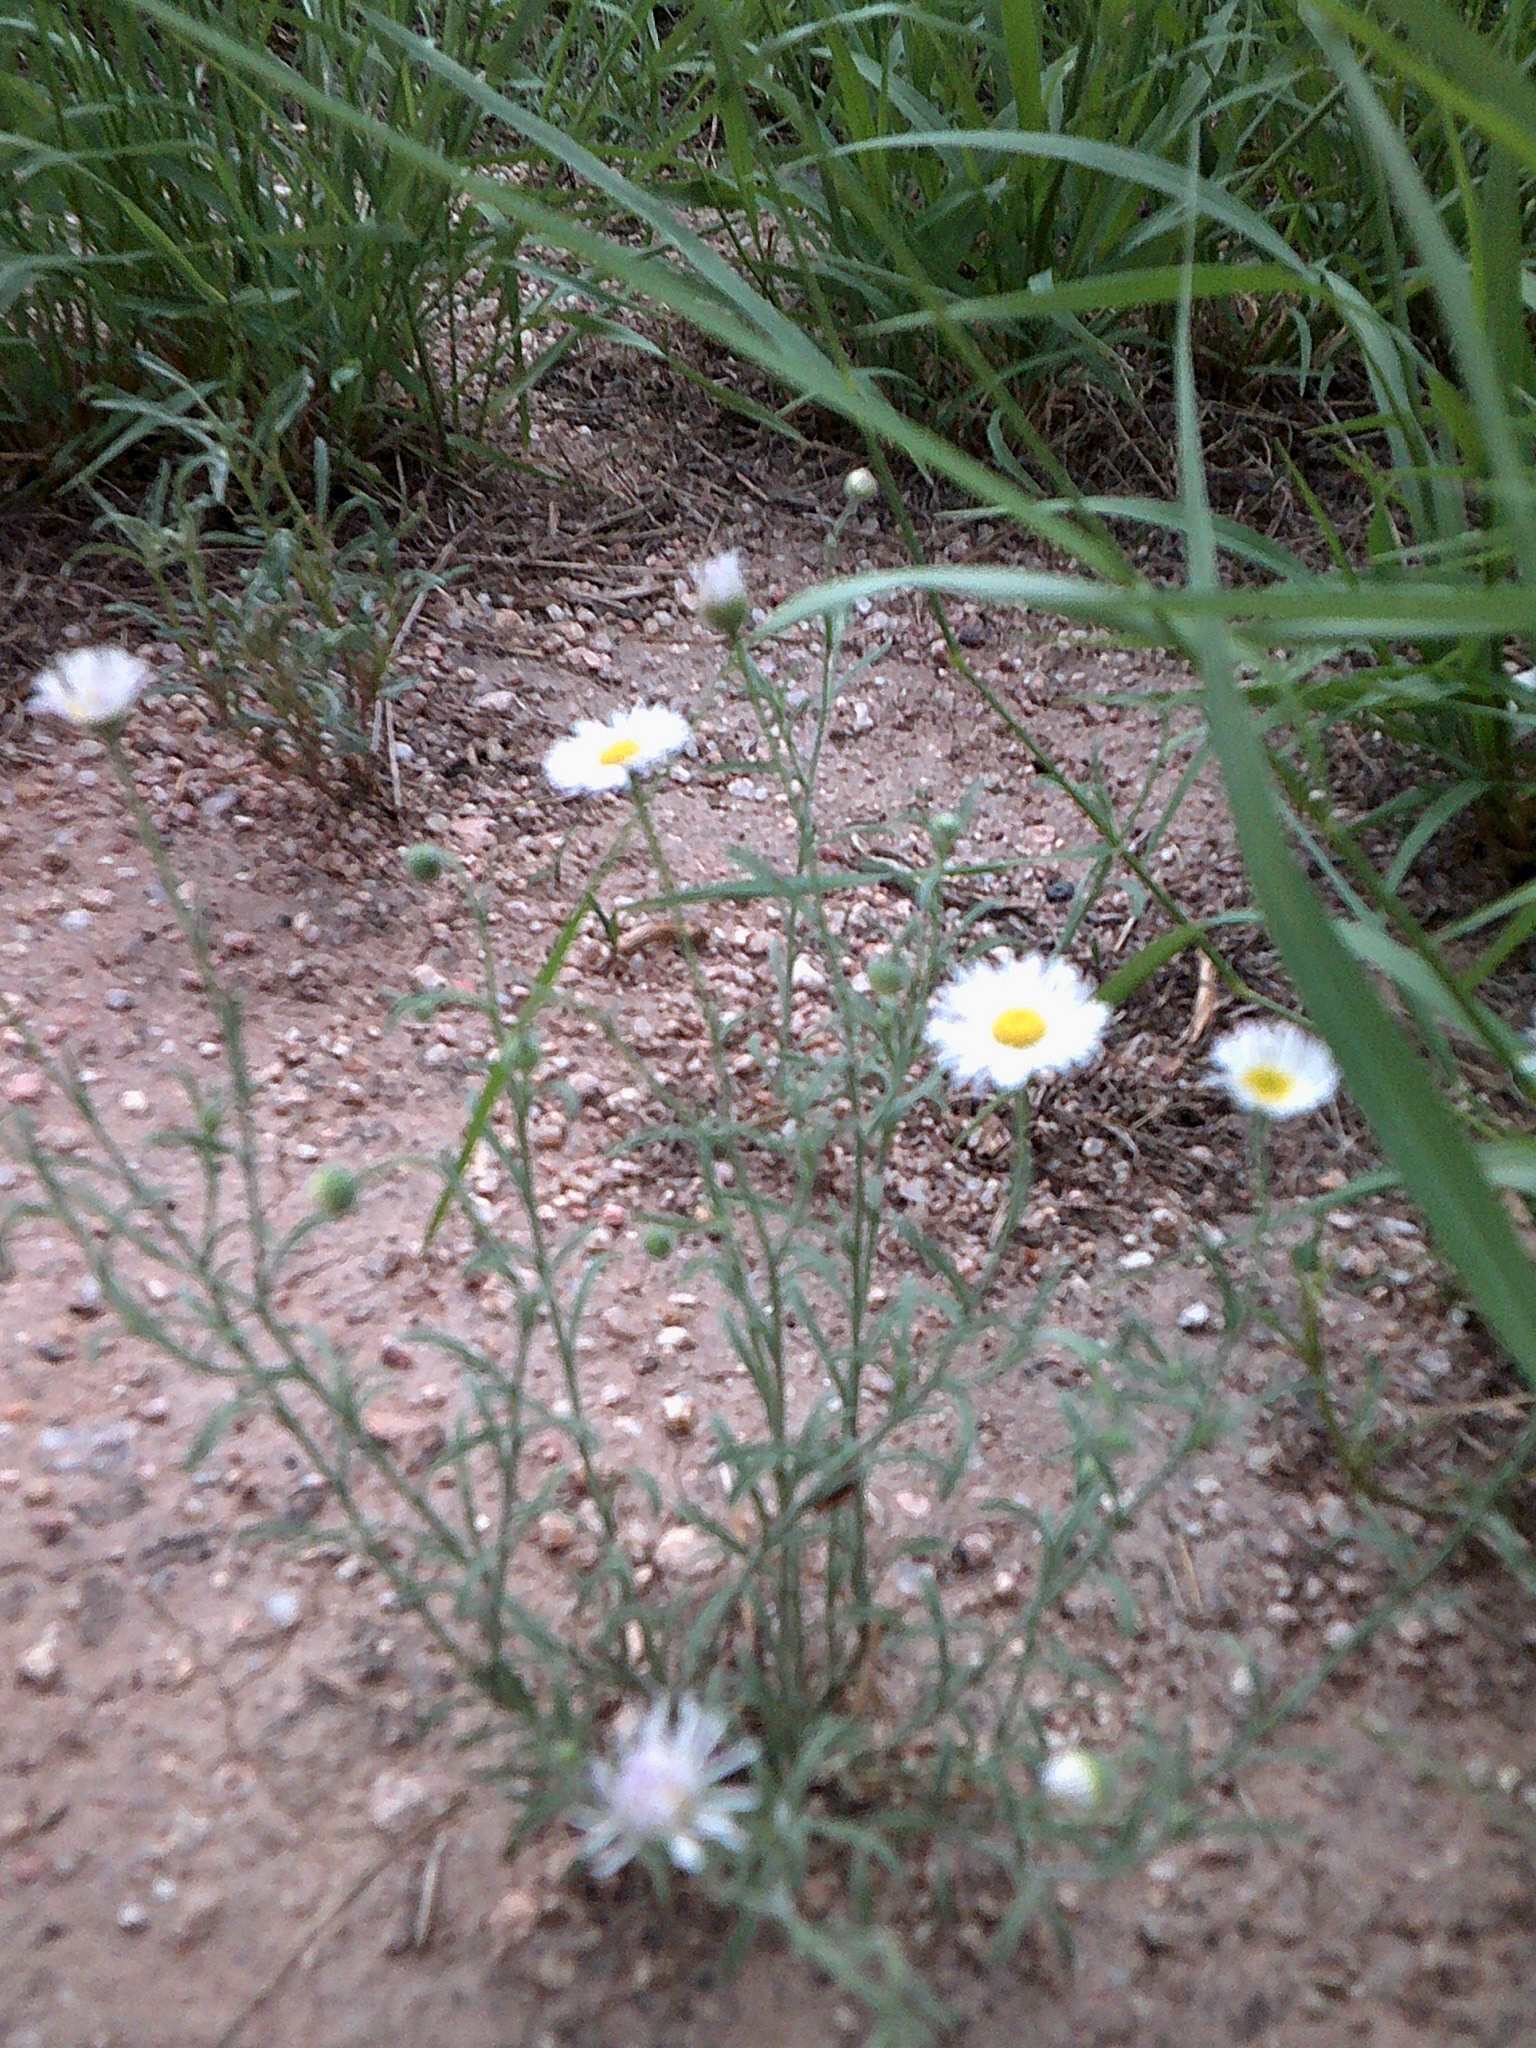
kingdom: Plantae
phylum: Tracheophyta
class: Magnoliopsida
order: Asterales
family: Asteraceae
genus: Erigeron
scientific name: Erigeron divergens
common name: Diffuse fleabane
